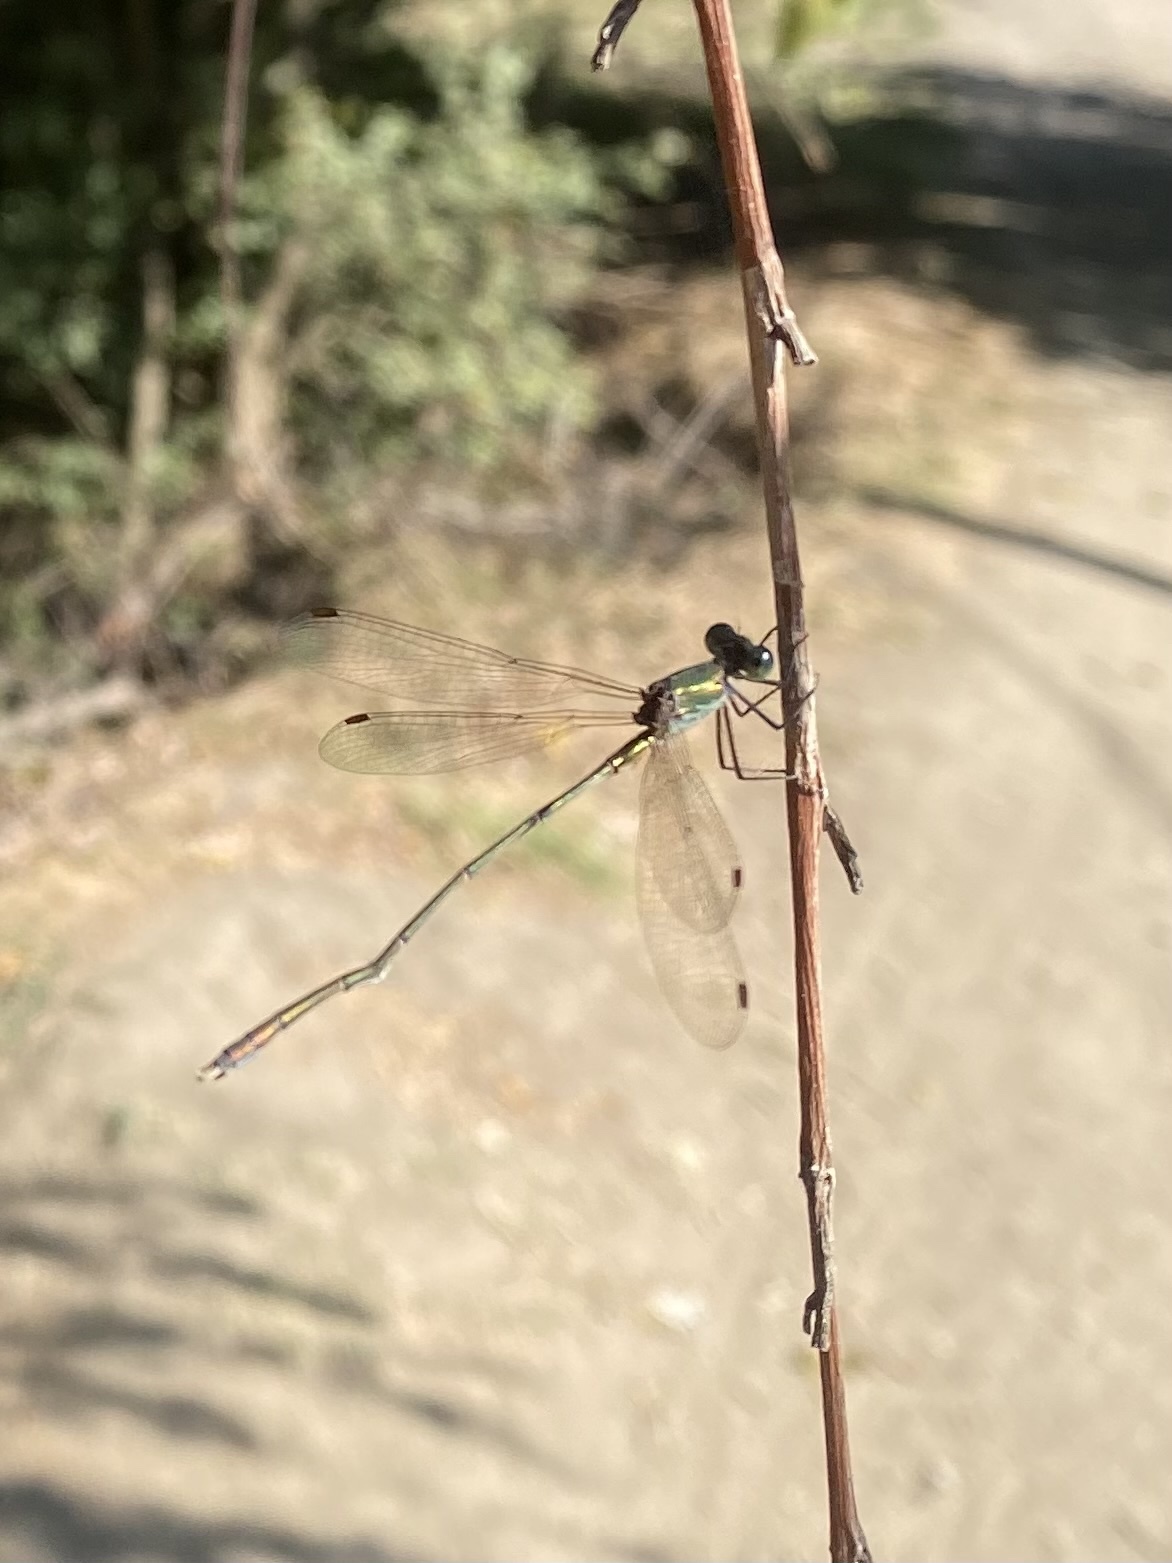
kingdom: Animalia
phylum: Arthropoda
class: Insecta
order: Odonata
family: Lestidae
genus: Chalcolestes
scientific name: Chalcolestes parvidens
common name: Eastern willow spreadwing
